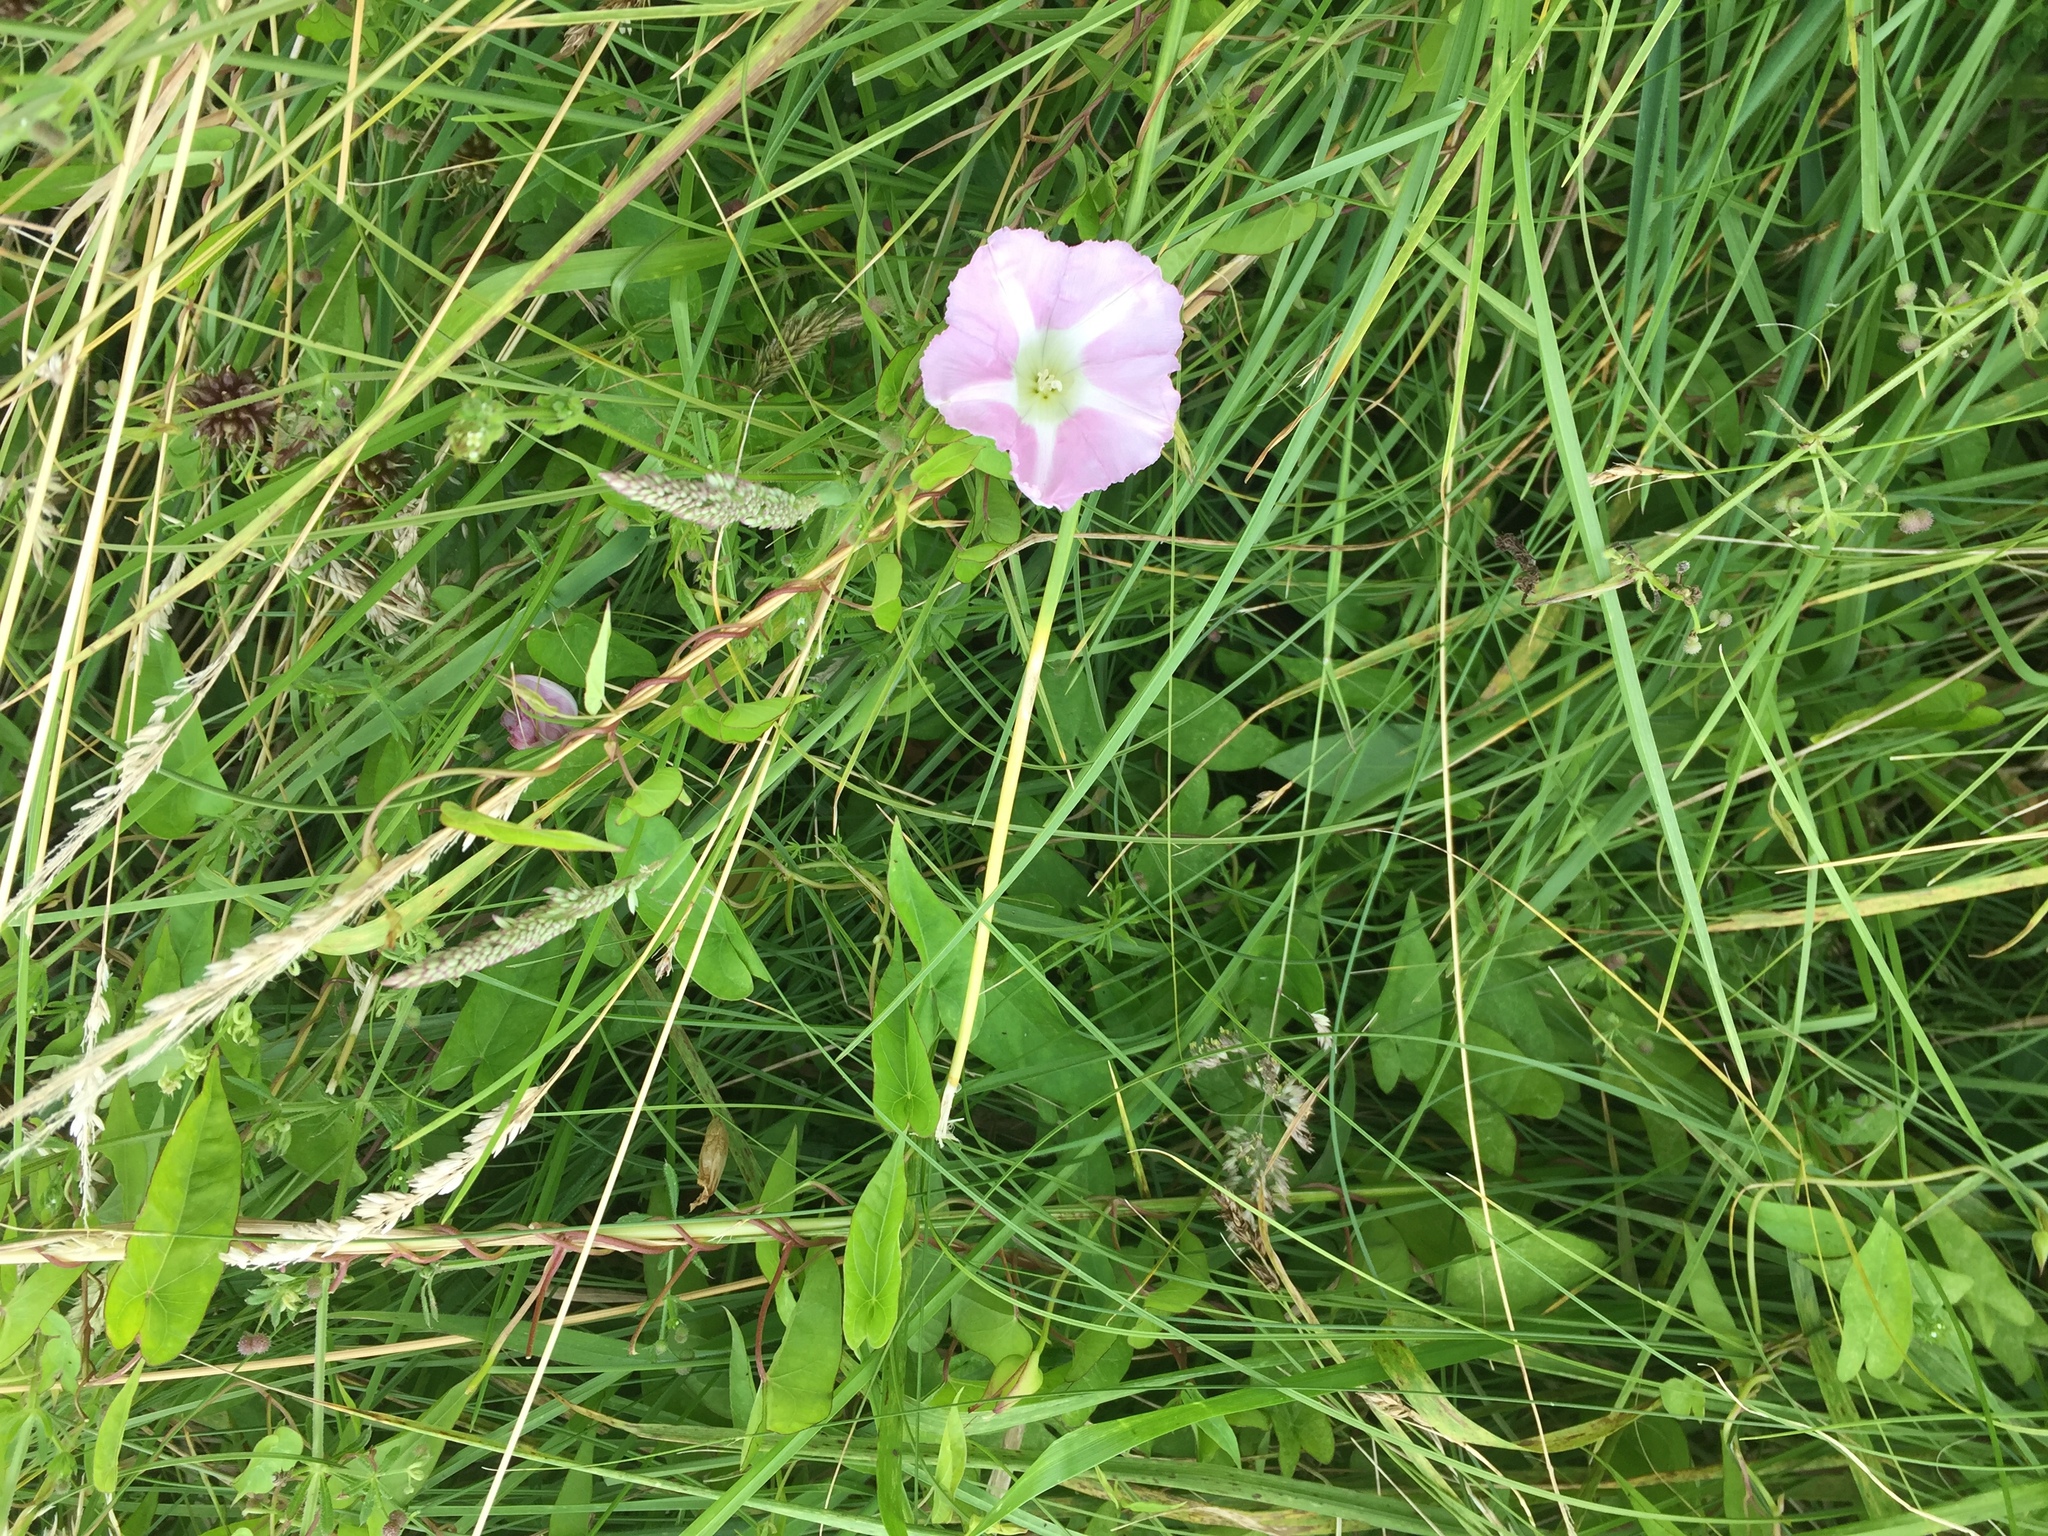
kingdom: Plantae
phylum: Tracheophyta
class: Magnoliopsida
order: Solanales
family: Convolvulaceae
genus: Calystegia
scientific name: Calystegia sepium
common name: Hedge bindweed
